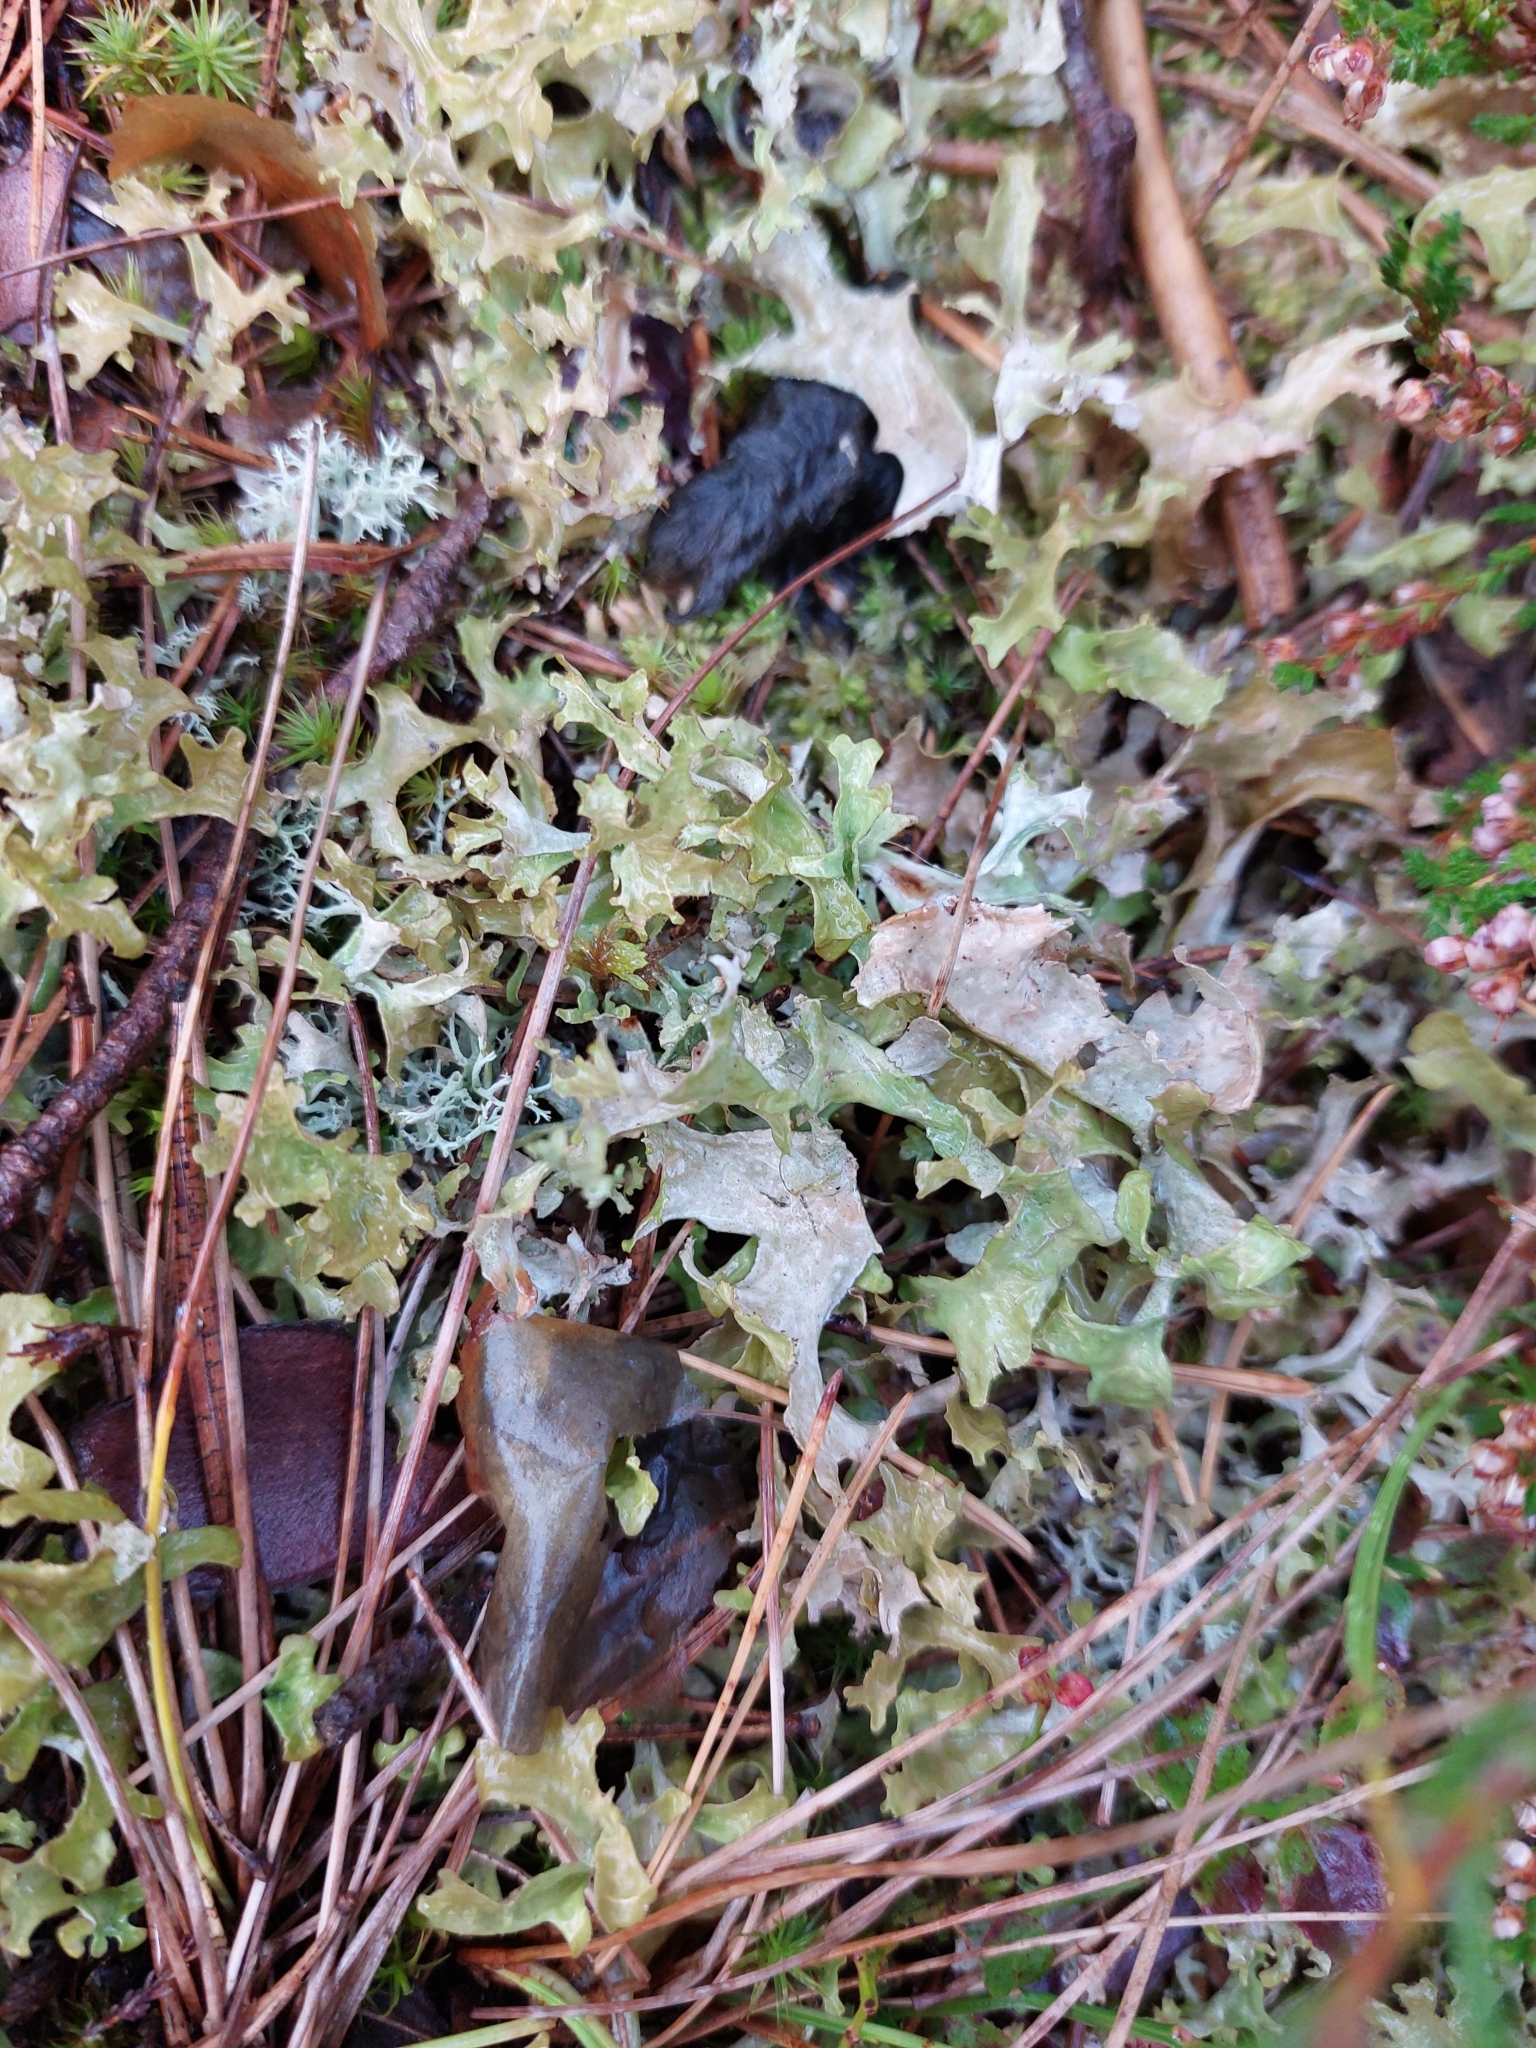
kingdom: Fungi
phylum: Ascomycota
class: Lecanoromycetes
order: Lecanorales
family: Parmeliaceae
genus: Cetraria
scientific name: Cetraria islandica
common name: Iceland lichen
